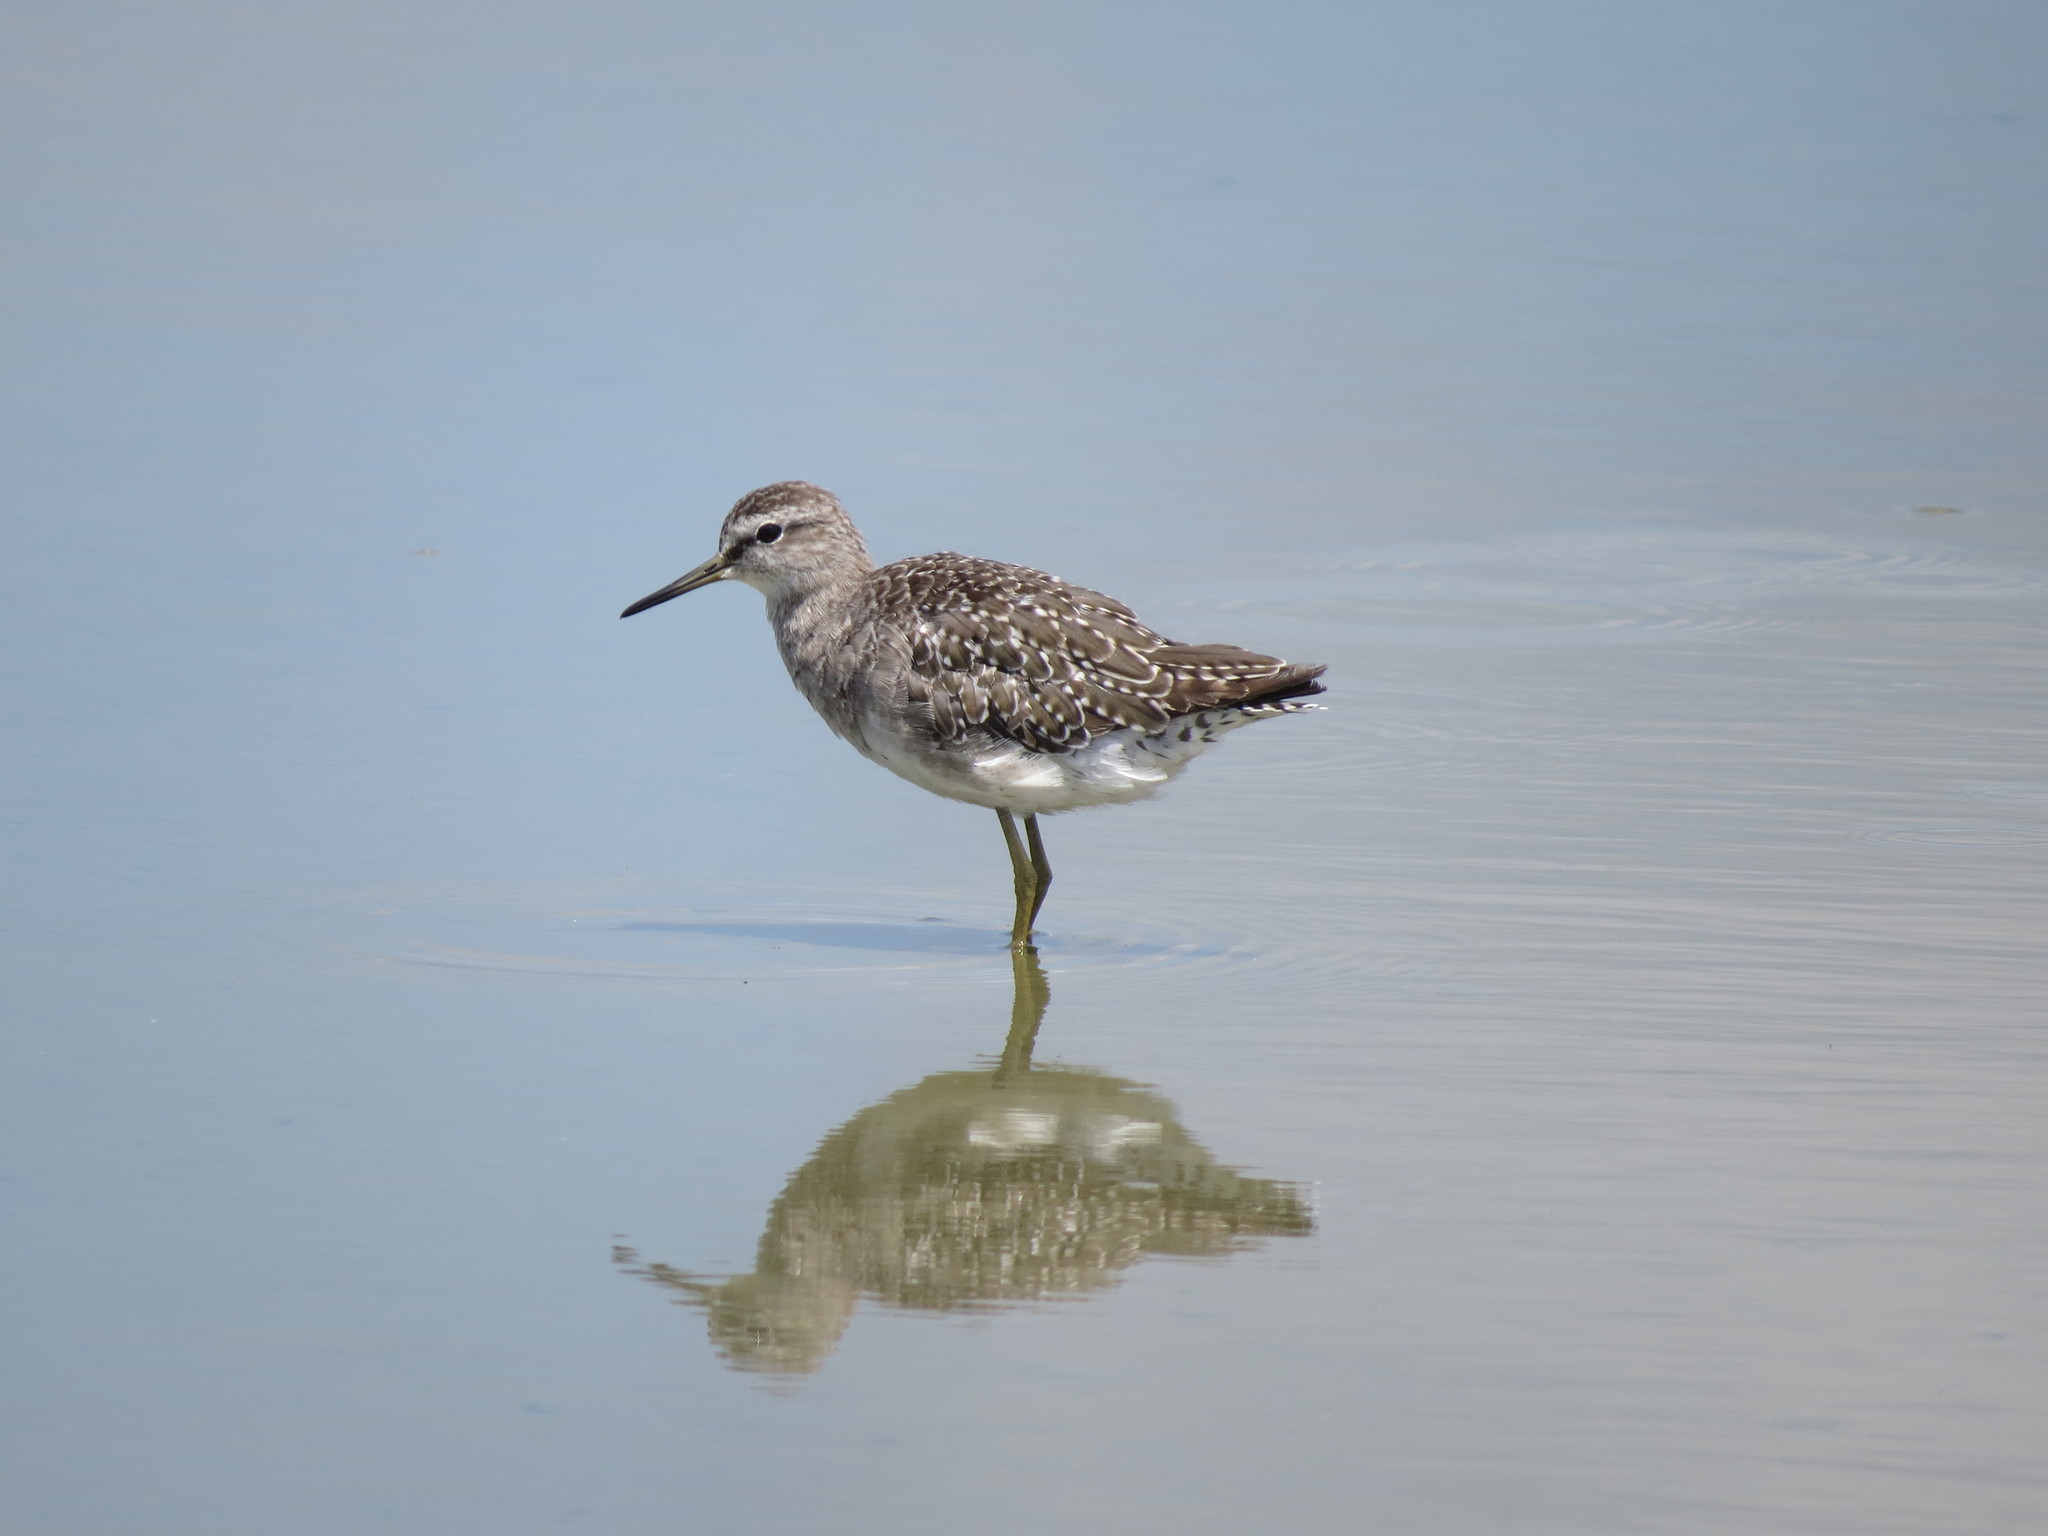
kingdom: Animalia
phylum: Chordata
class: Aves
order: Charadriiformes
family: Scolopacidae
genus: Tringa
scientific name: Tringa glareola
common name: Wood sandpiper
